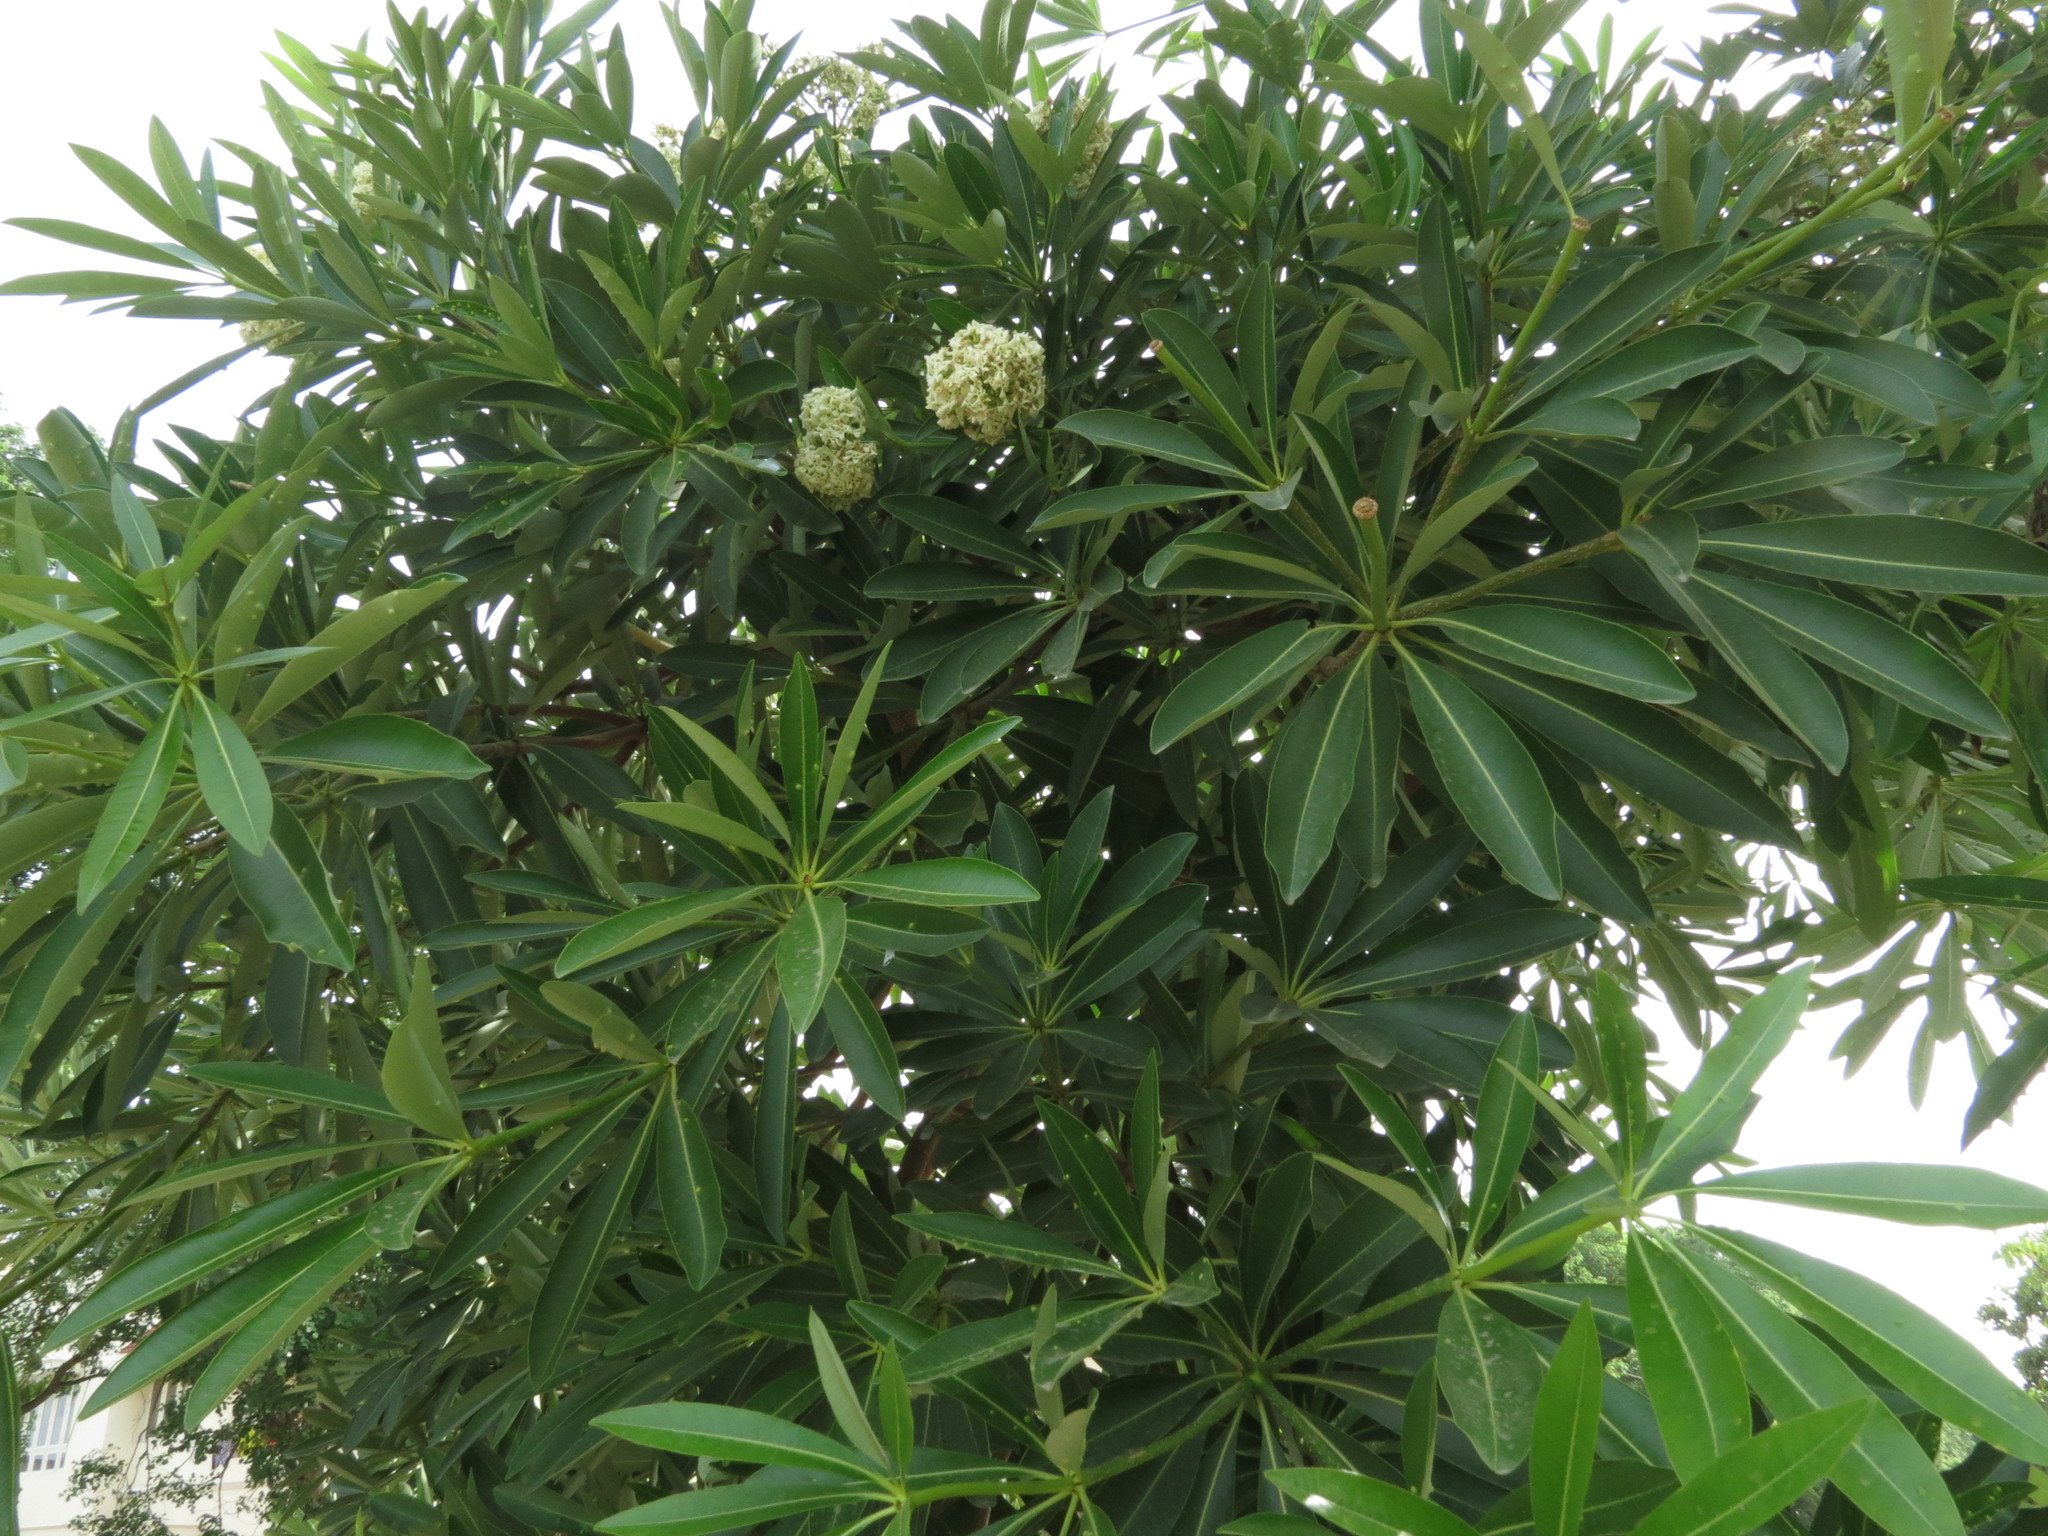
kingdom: Plantae
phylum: Tracheophyta
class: Magnoliopsida
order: Gentianales
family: Apocynaceae
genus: Alstonia
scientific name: Alstonia scholaris
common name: White cheesewood
